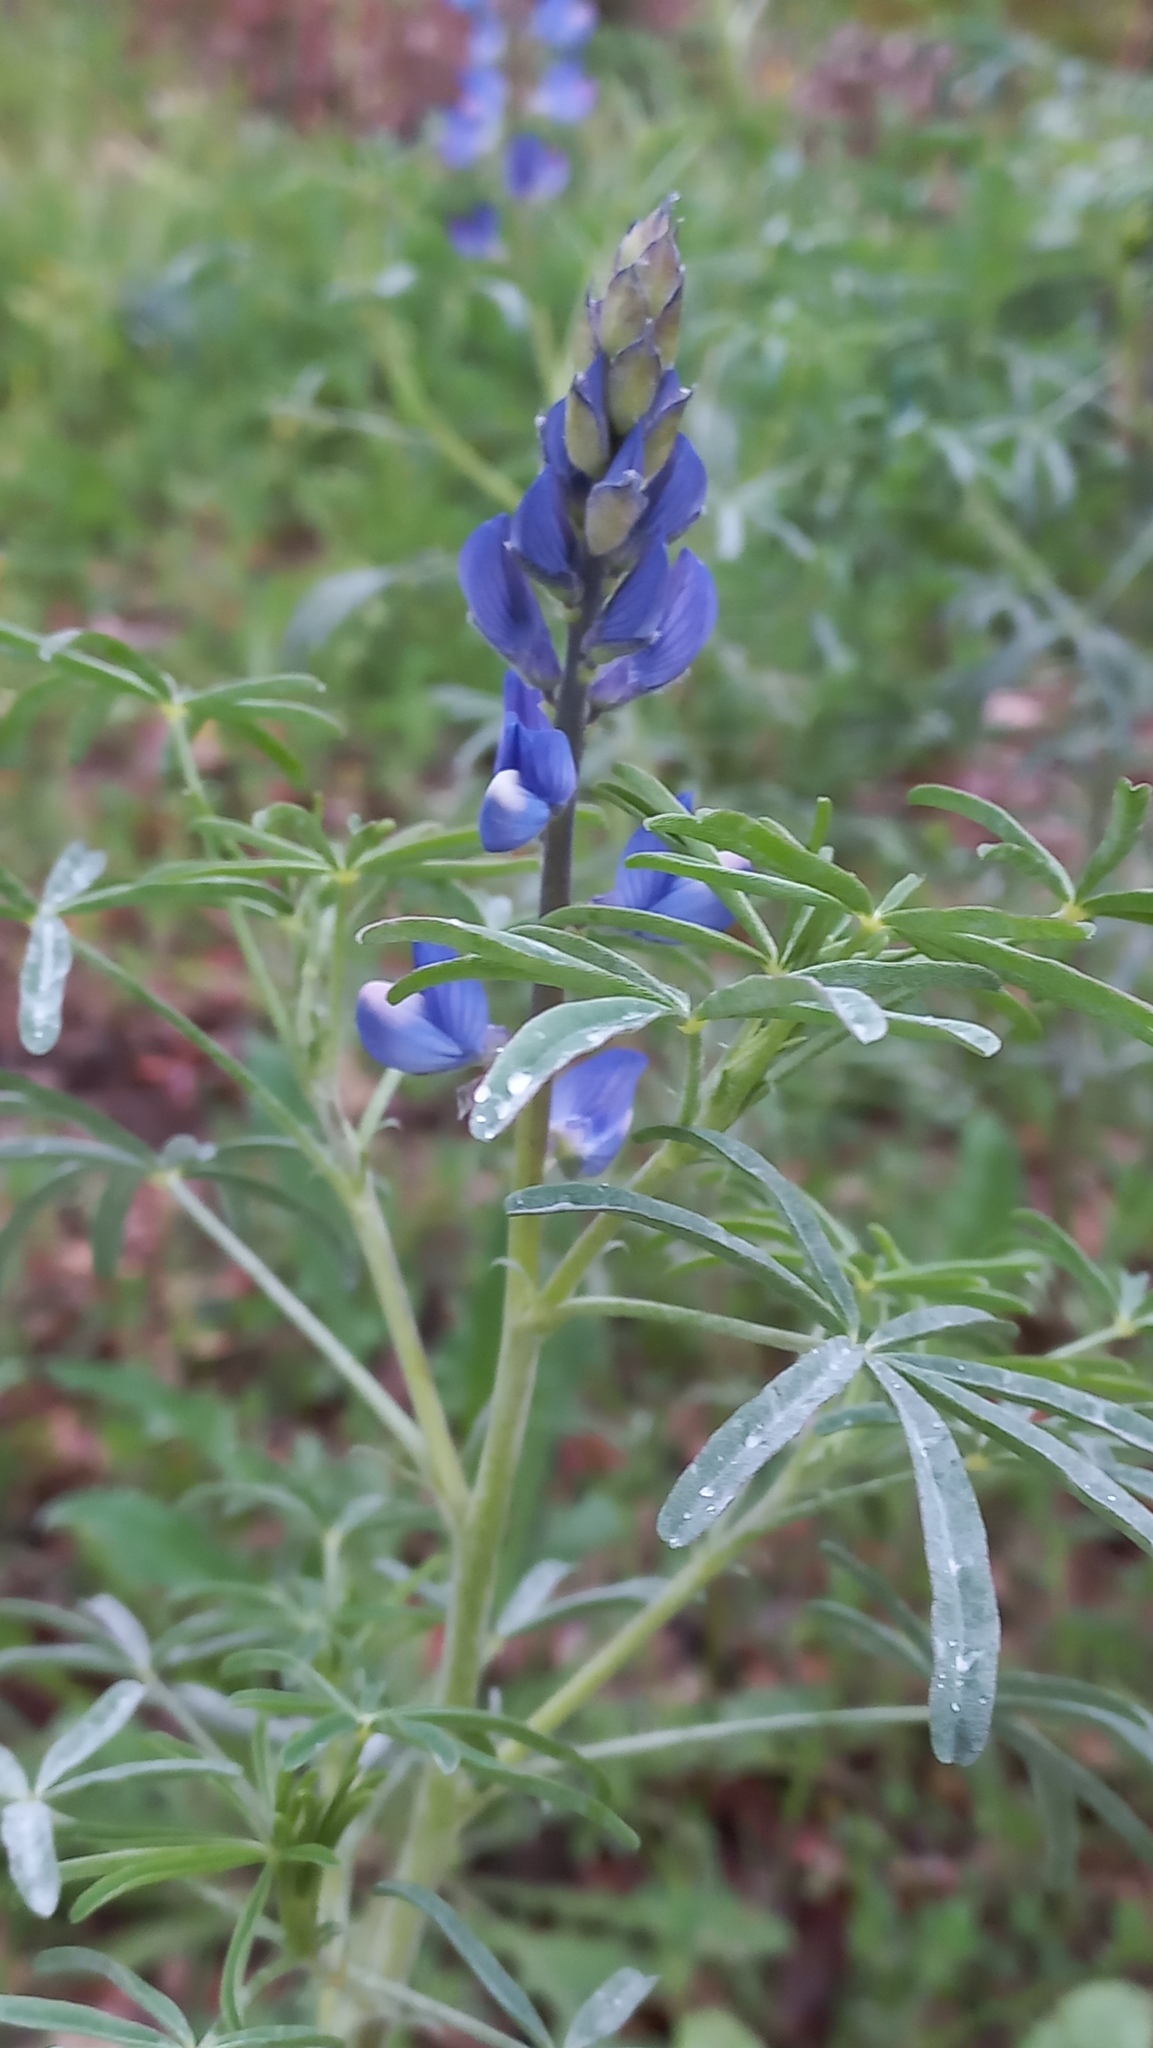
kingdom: Plantae
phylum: Tracheophyta
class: Magnoliopsida
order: Fabales
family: Fabaceae
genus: Lupinus
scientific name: Lupinus angustifolius
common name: Narrow-leaved lupin
